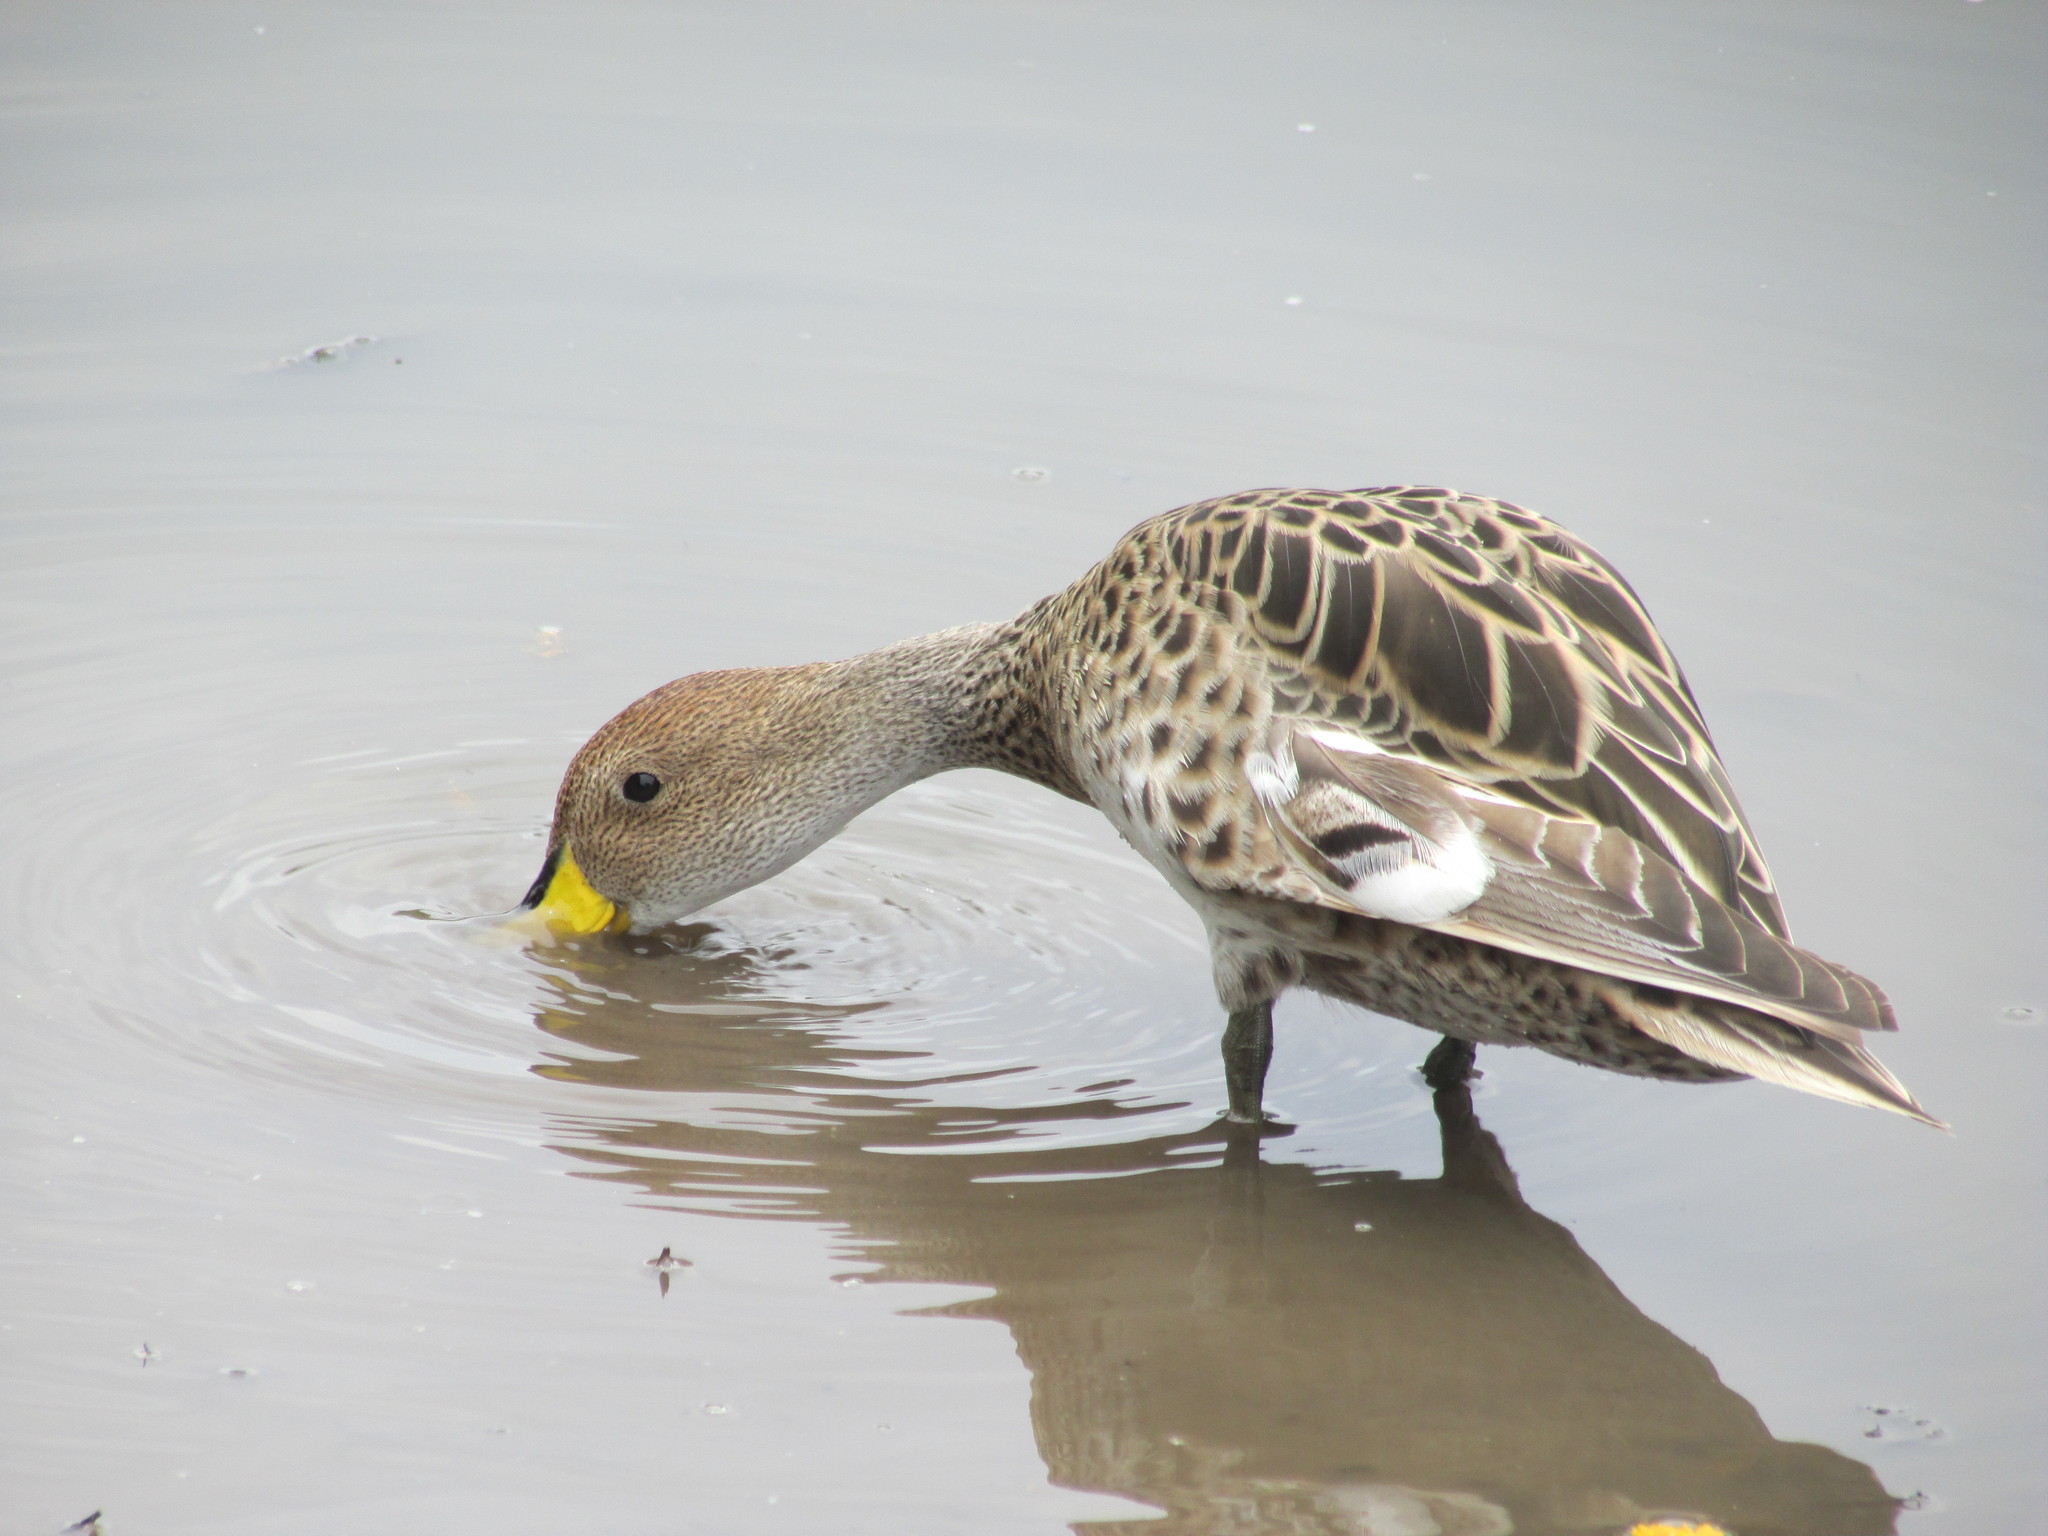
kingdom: Animalia
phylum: Chordata
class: Aves
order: Anseriformes
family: Anatidae
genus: Anas
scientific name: Anas georgica
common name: Yellow-billed pintail
